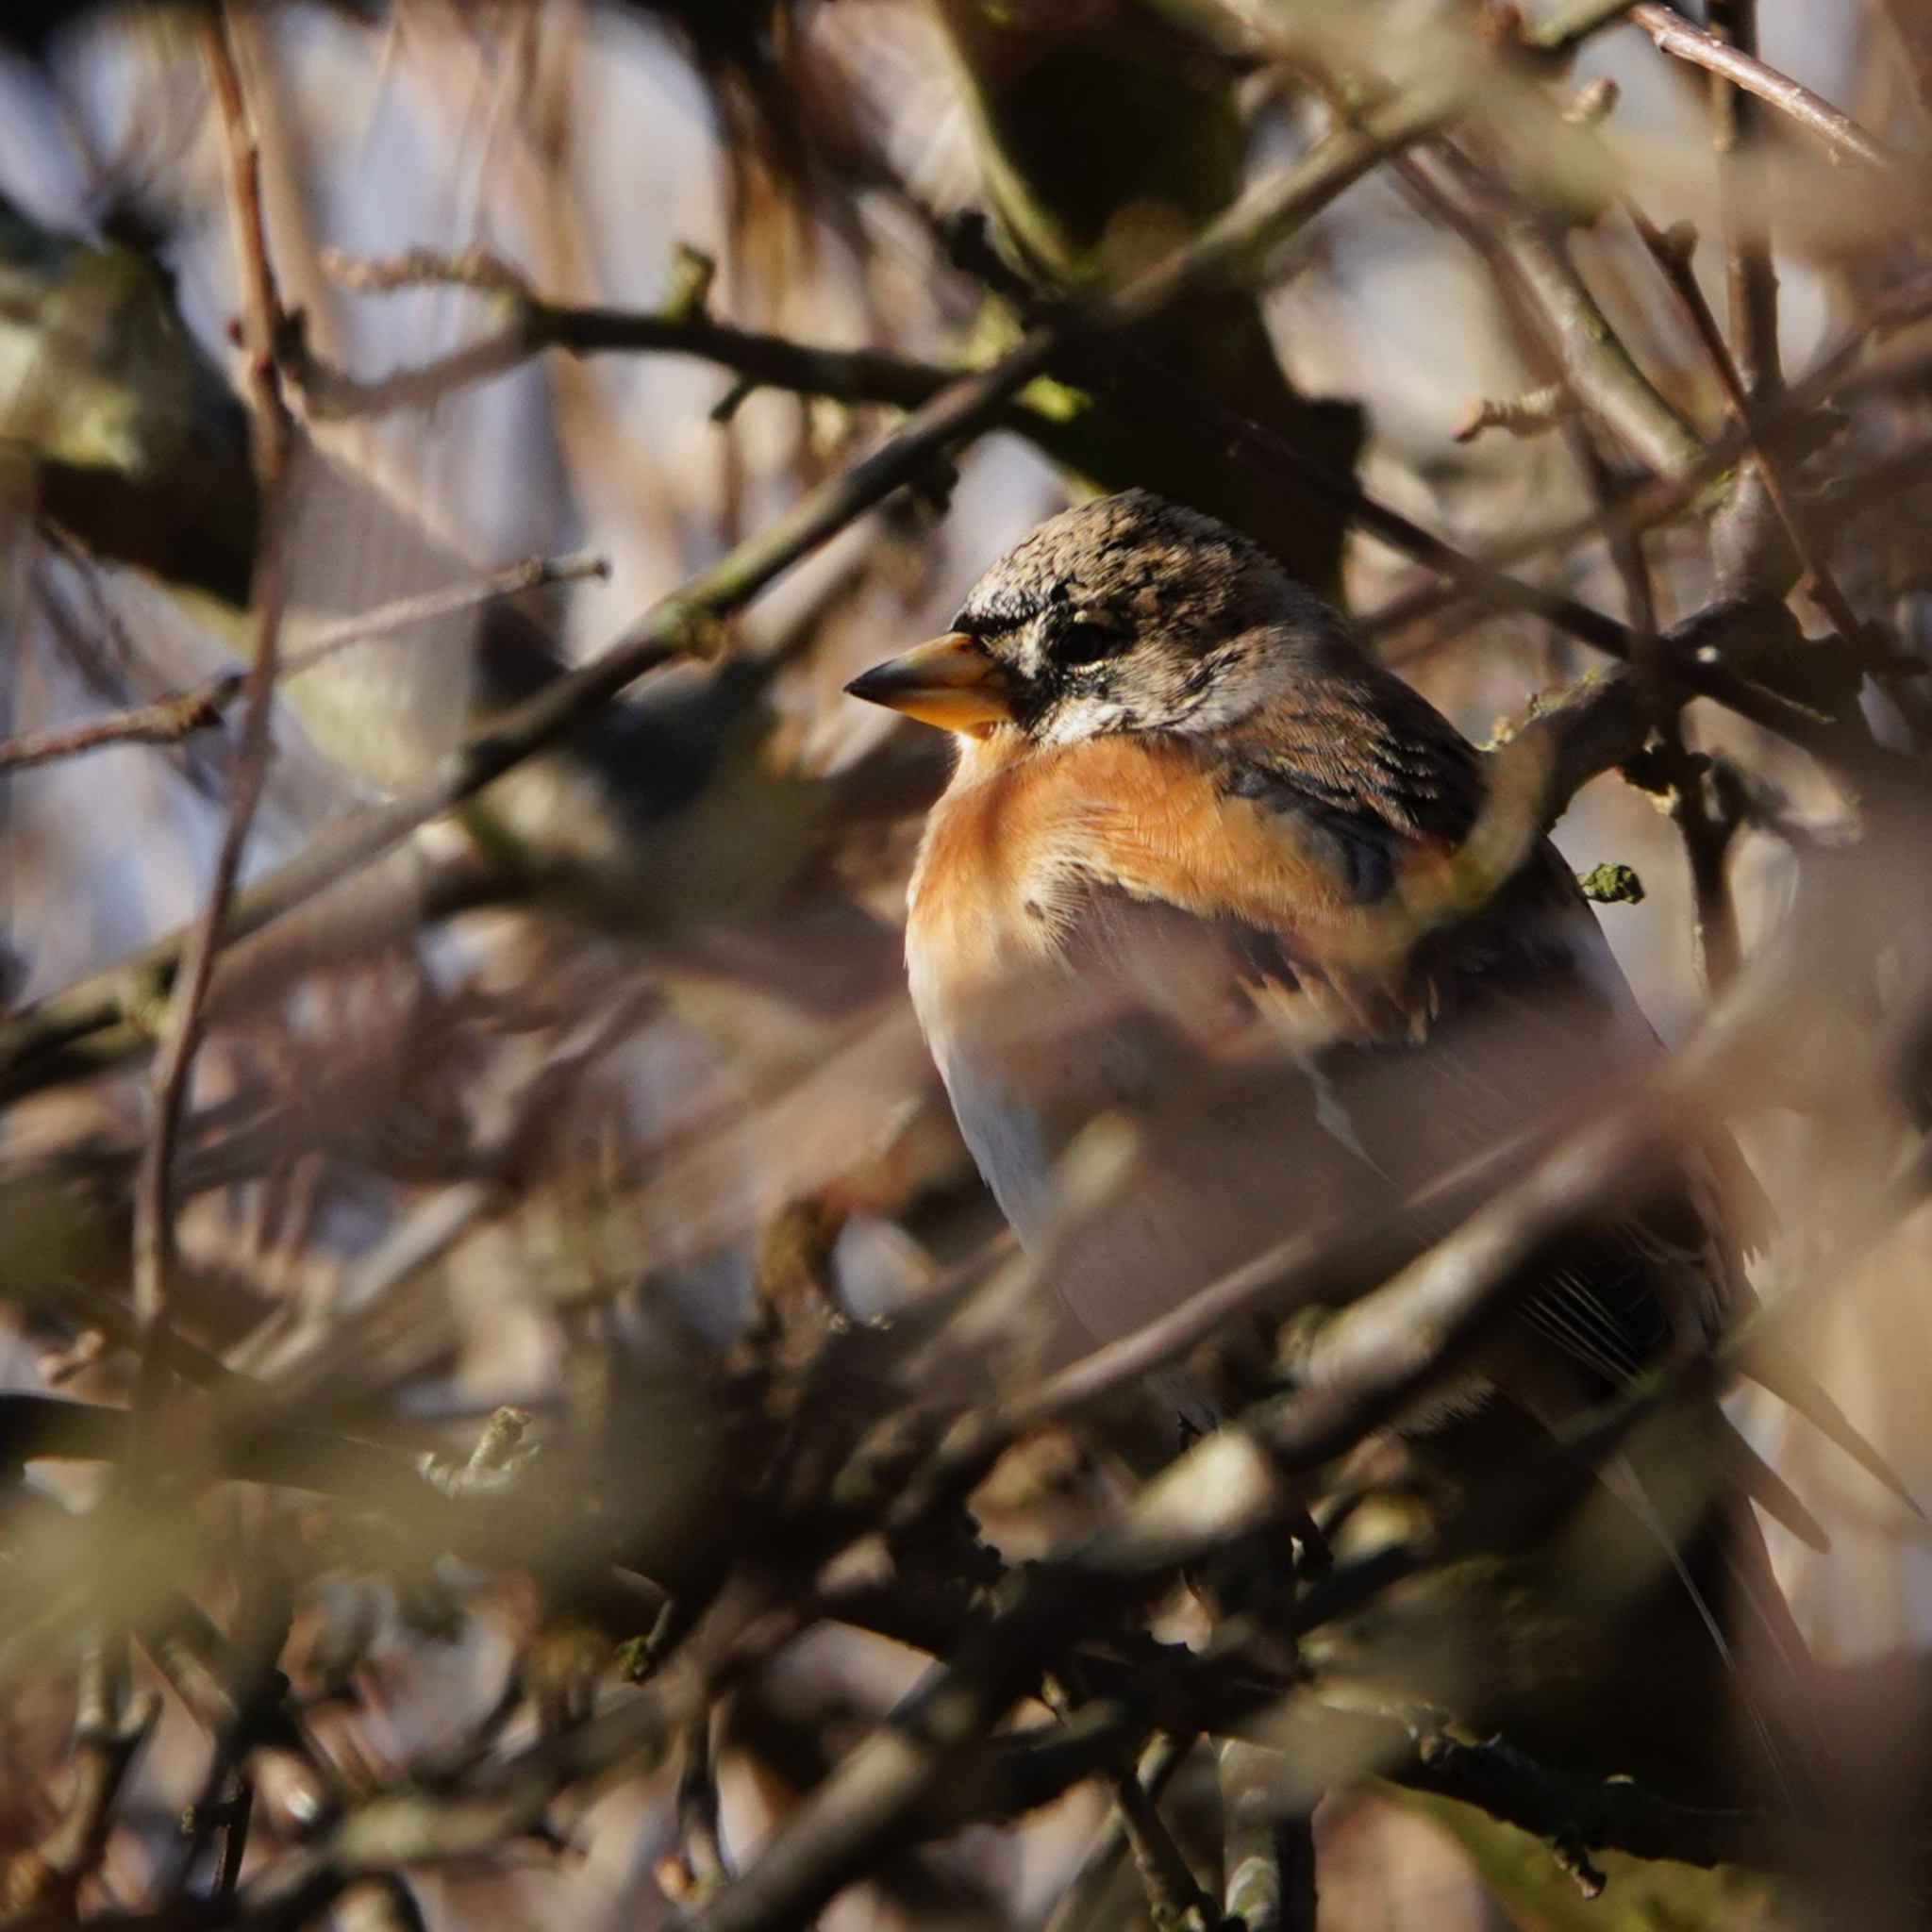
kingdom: Animalia
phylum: Chordata
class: Aves
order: Passeriformes
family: Fringillidae
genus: Fringilla
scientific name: Fringilla montifringilla
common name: Brambling
